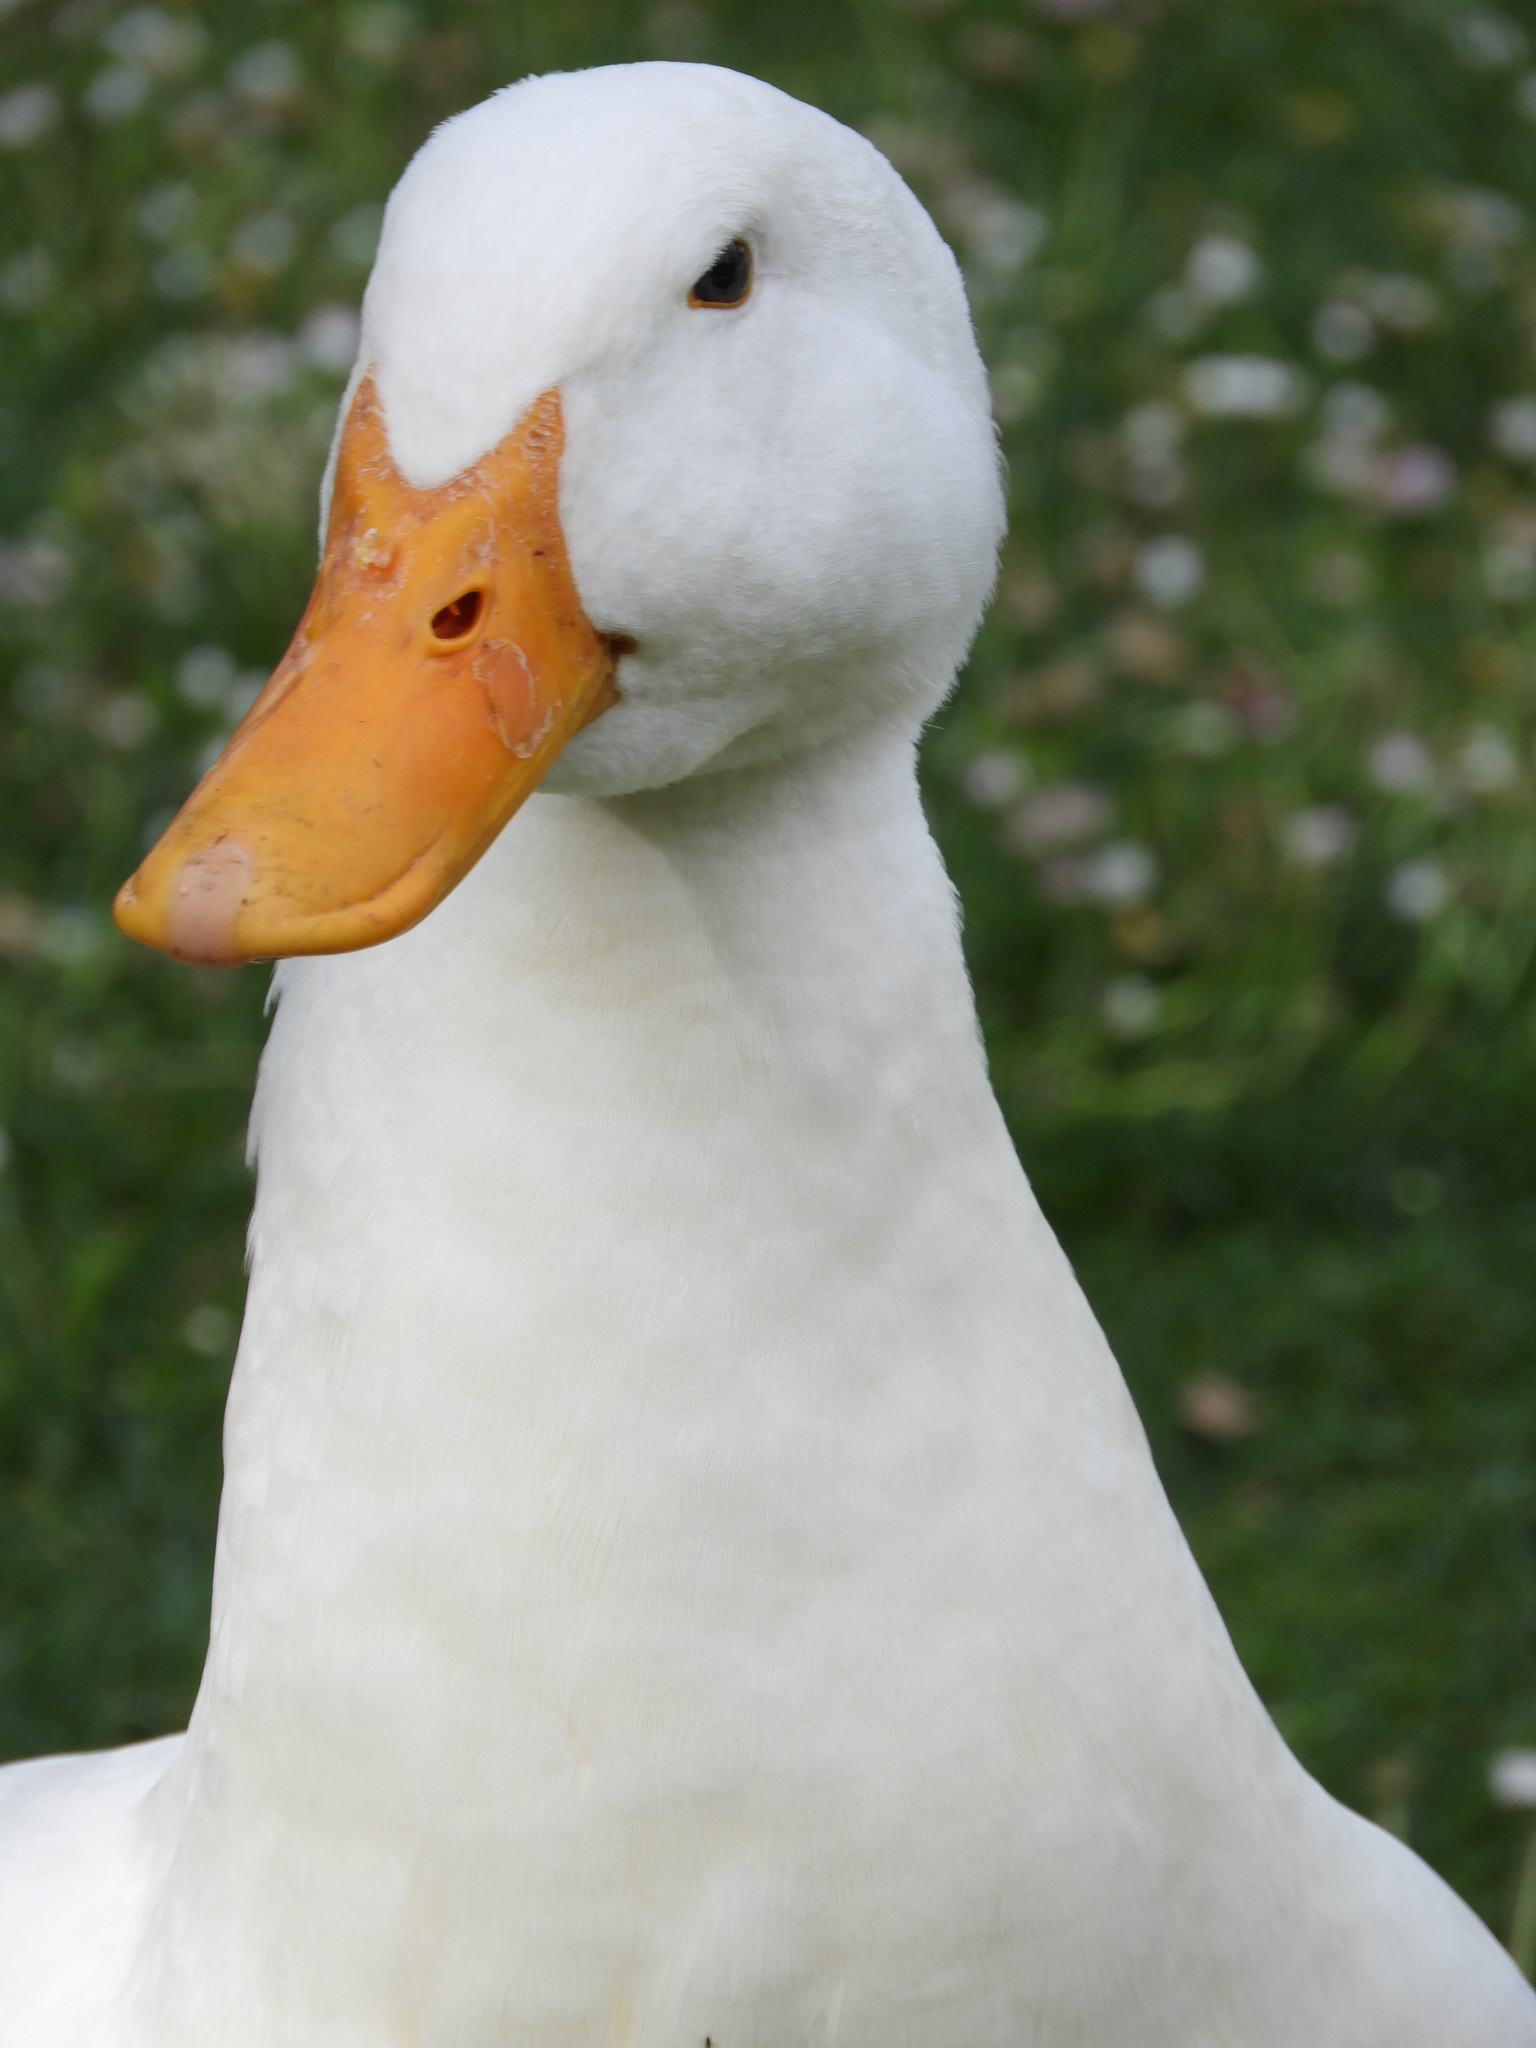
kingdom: Animalia
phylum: Chordata
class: Aves
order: Anseriformes
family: Anatidae
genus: Anas
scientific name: Anas platyrhynchos
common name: Mallard
